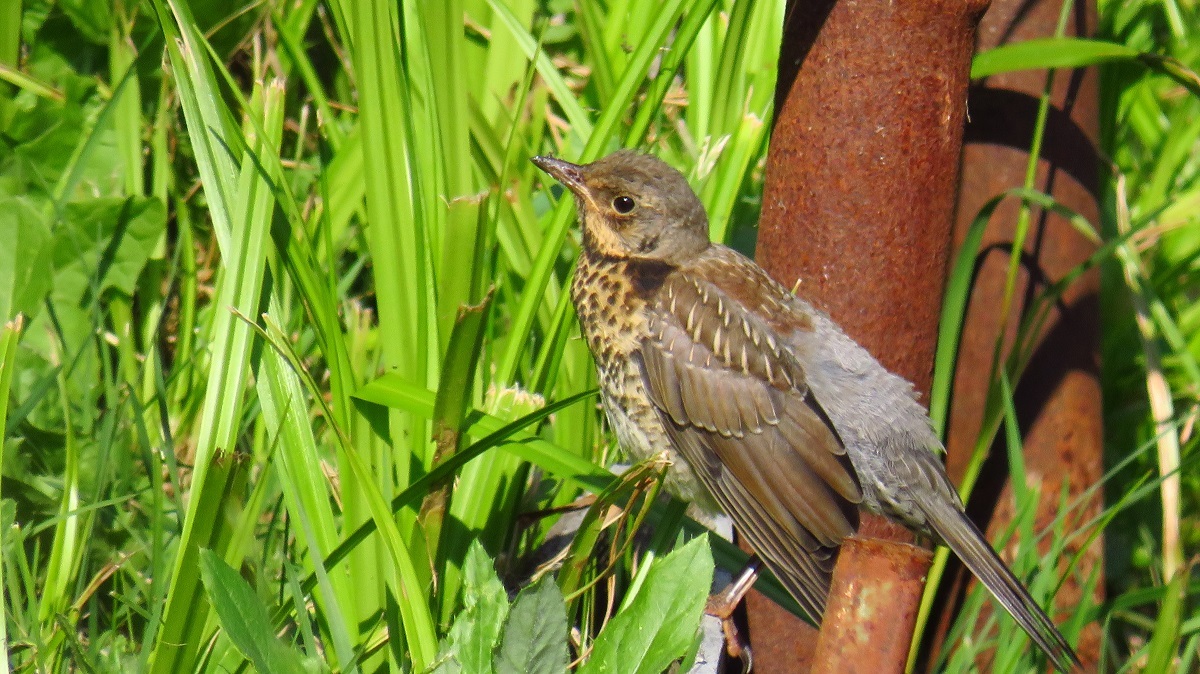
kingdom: Animalia
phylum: Chordata
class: Aves
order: Passeriformes
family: Turdidae
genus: Turdus
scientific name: Turdus pilaris
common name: Fieldfare
